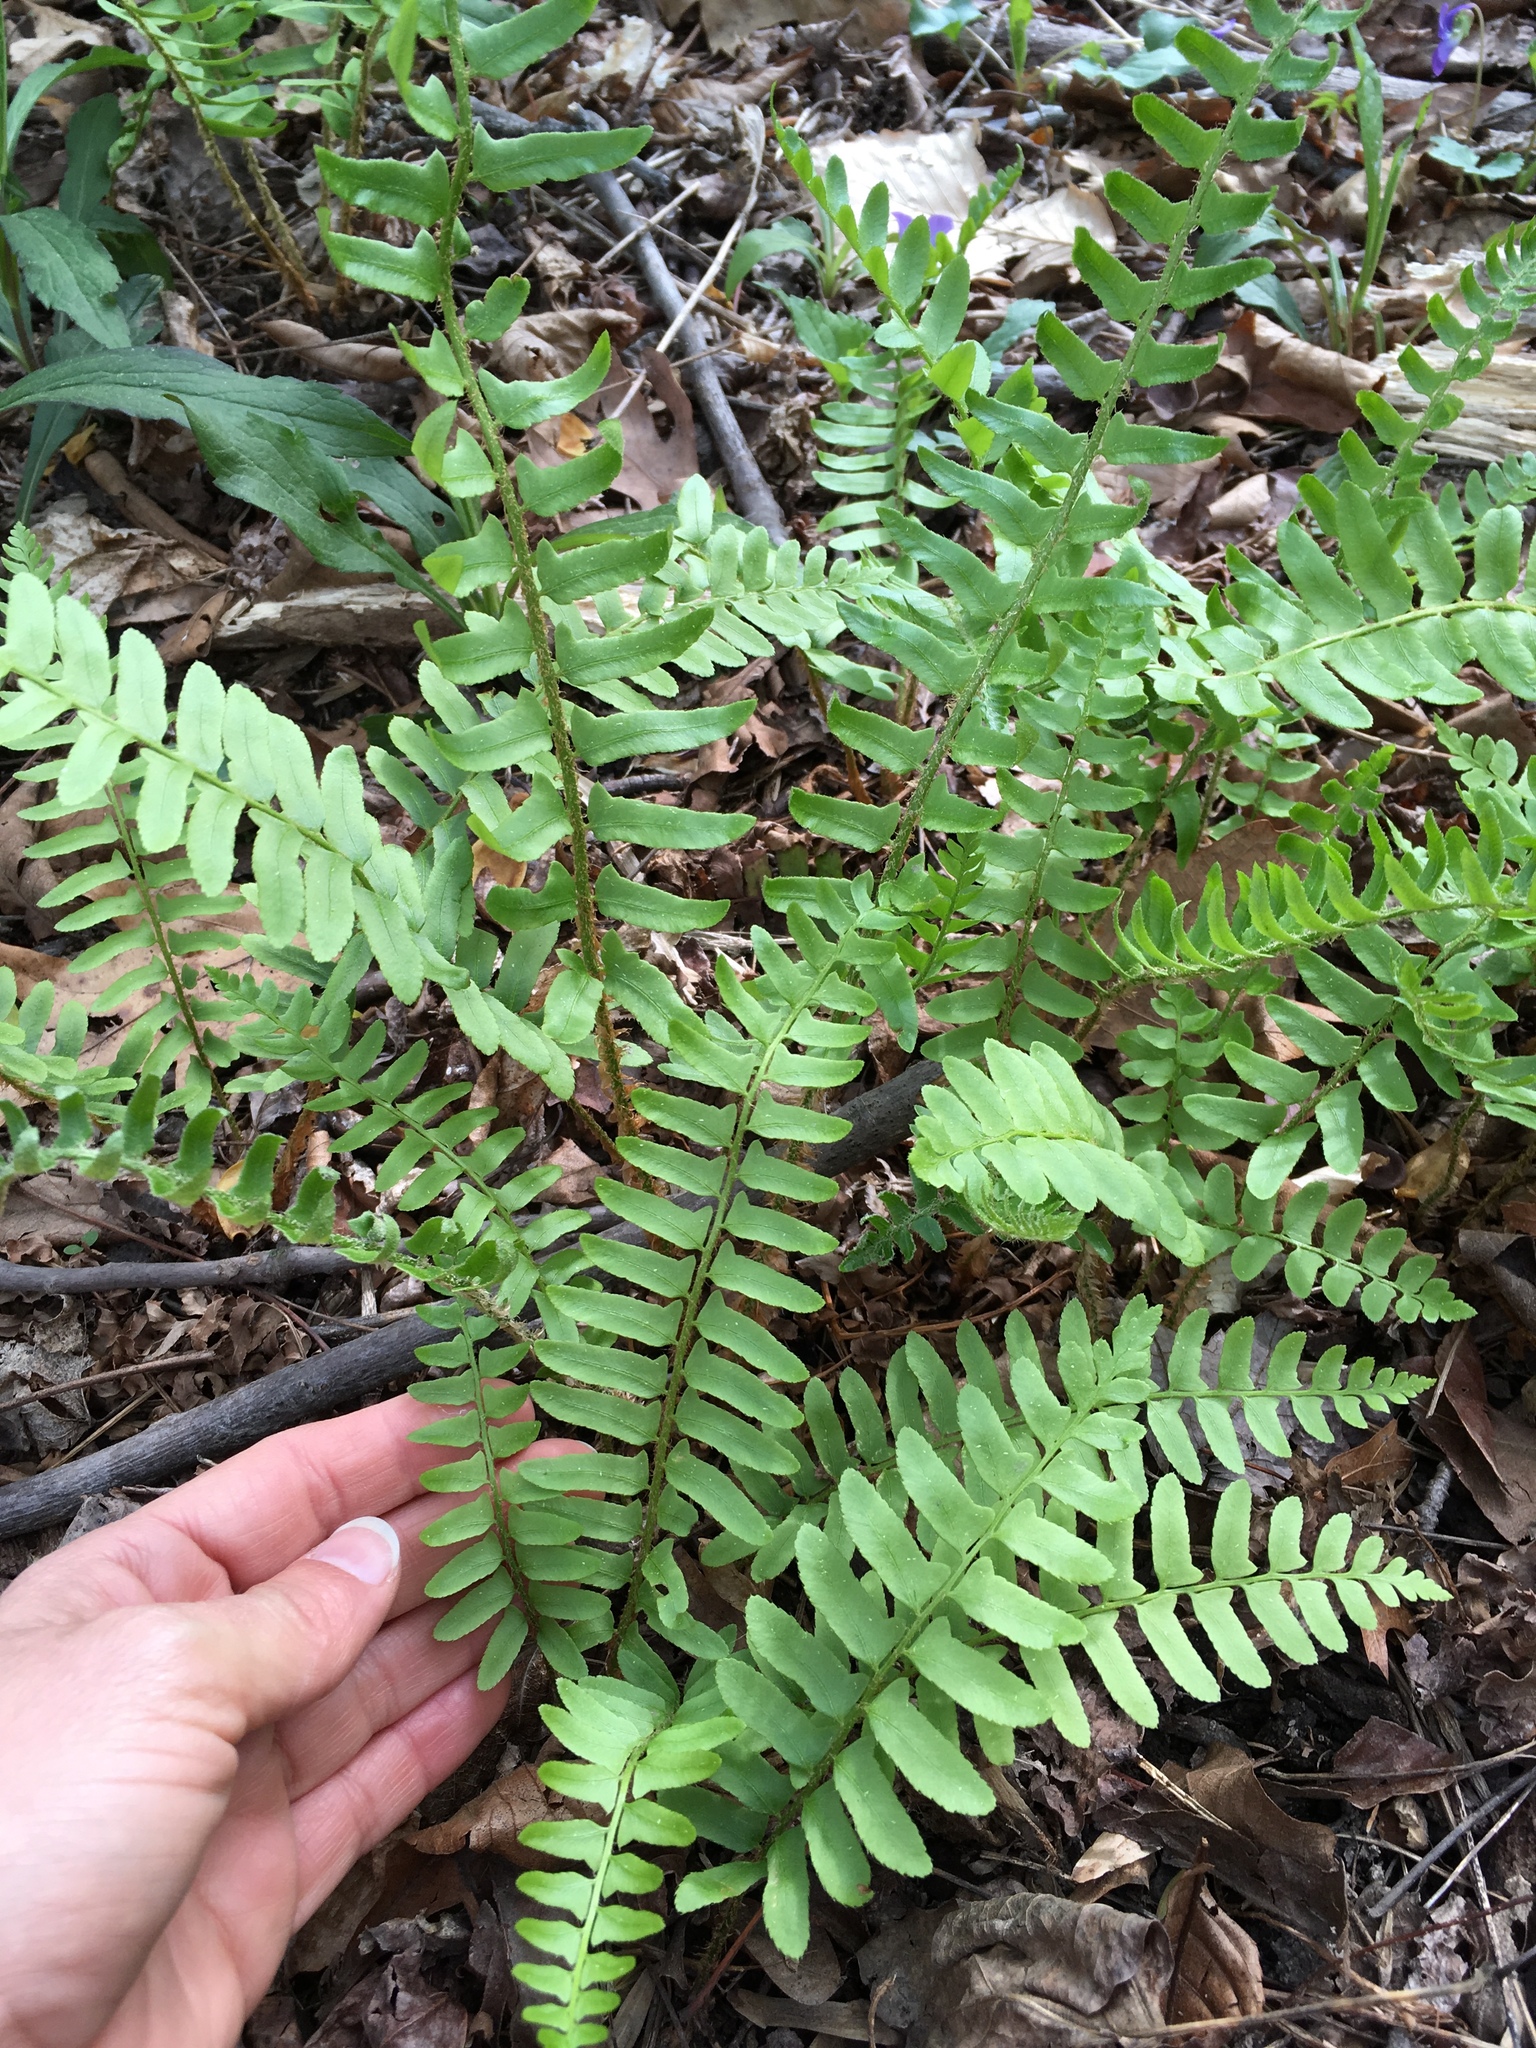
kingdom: Plantae
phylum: Tracheophyta
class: Polypodiopsida
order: Polypodiales
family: Dryopteridaceae
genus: Polystichum
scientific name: Polystichum acrostichoides
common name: Christmas fern
